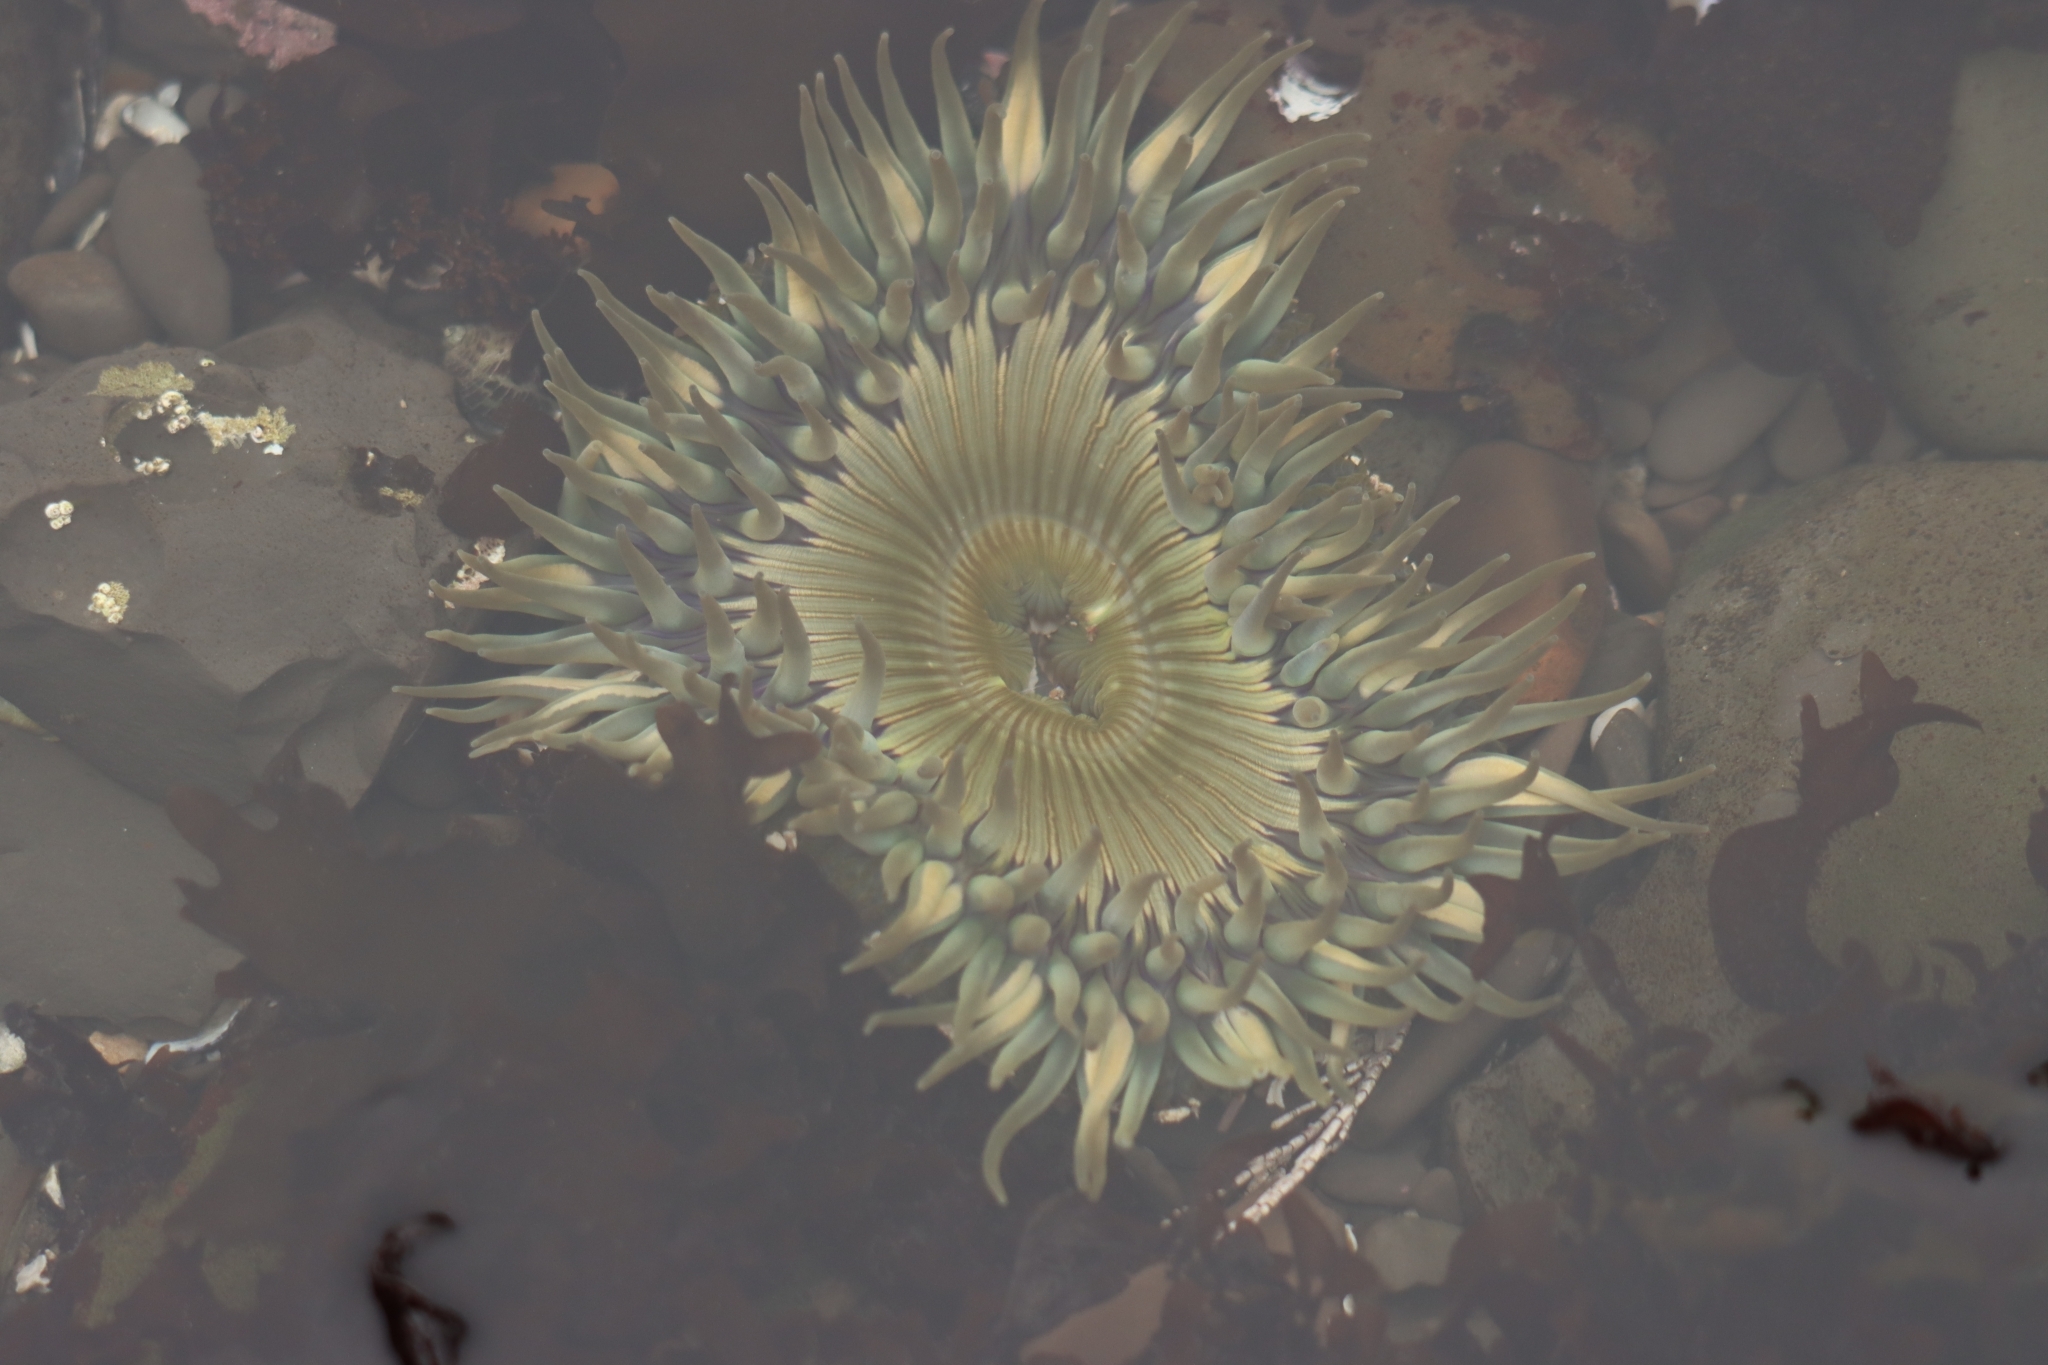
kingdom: Animalia
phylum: Cnidaria
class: Anthozoa
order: Actiniaria
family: Actiniidae
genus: Anthopleura
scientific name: Anthopleura sola
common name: Sun anemone
